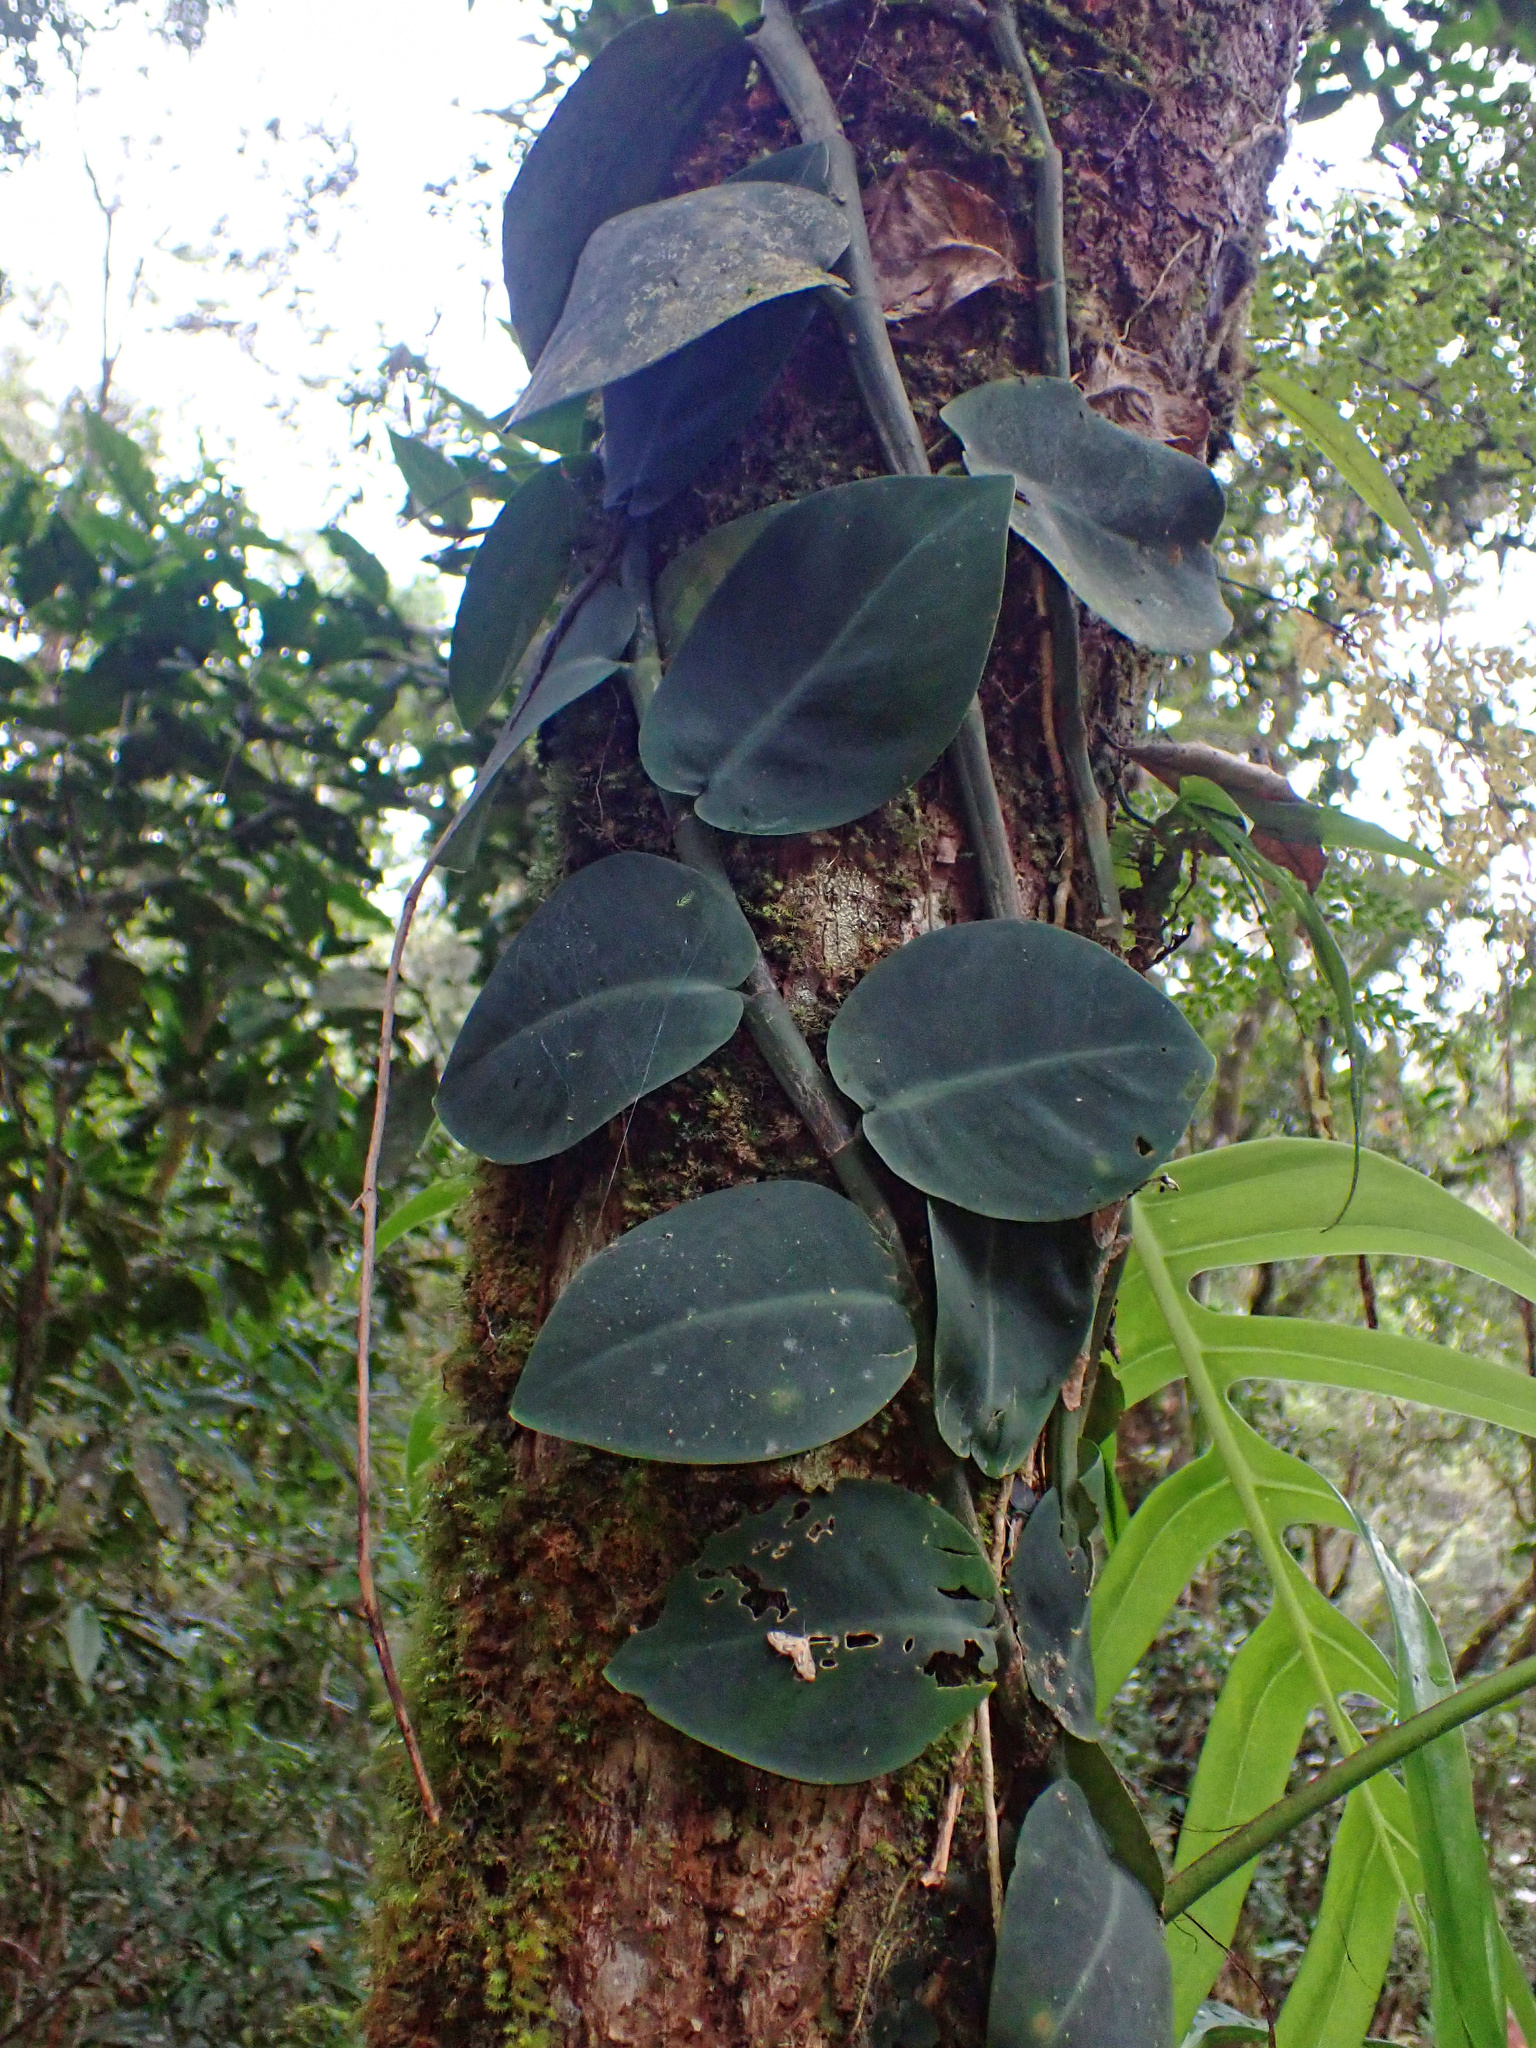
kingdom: Plantae
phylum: Tracheophyta
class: Liliopsida
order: Alismatales
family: Araceae
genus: Rhaphidophora
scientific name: Rhaphidophora hayi
